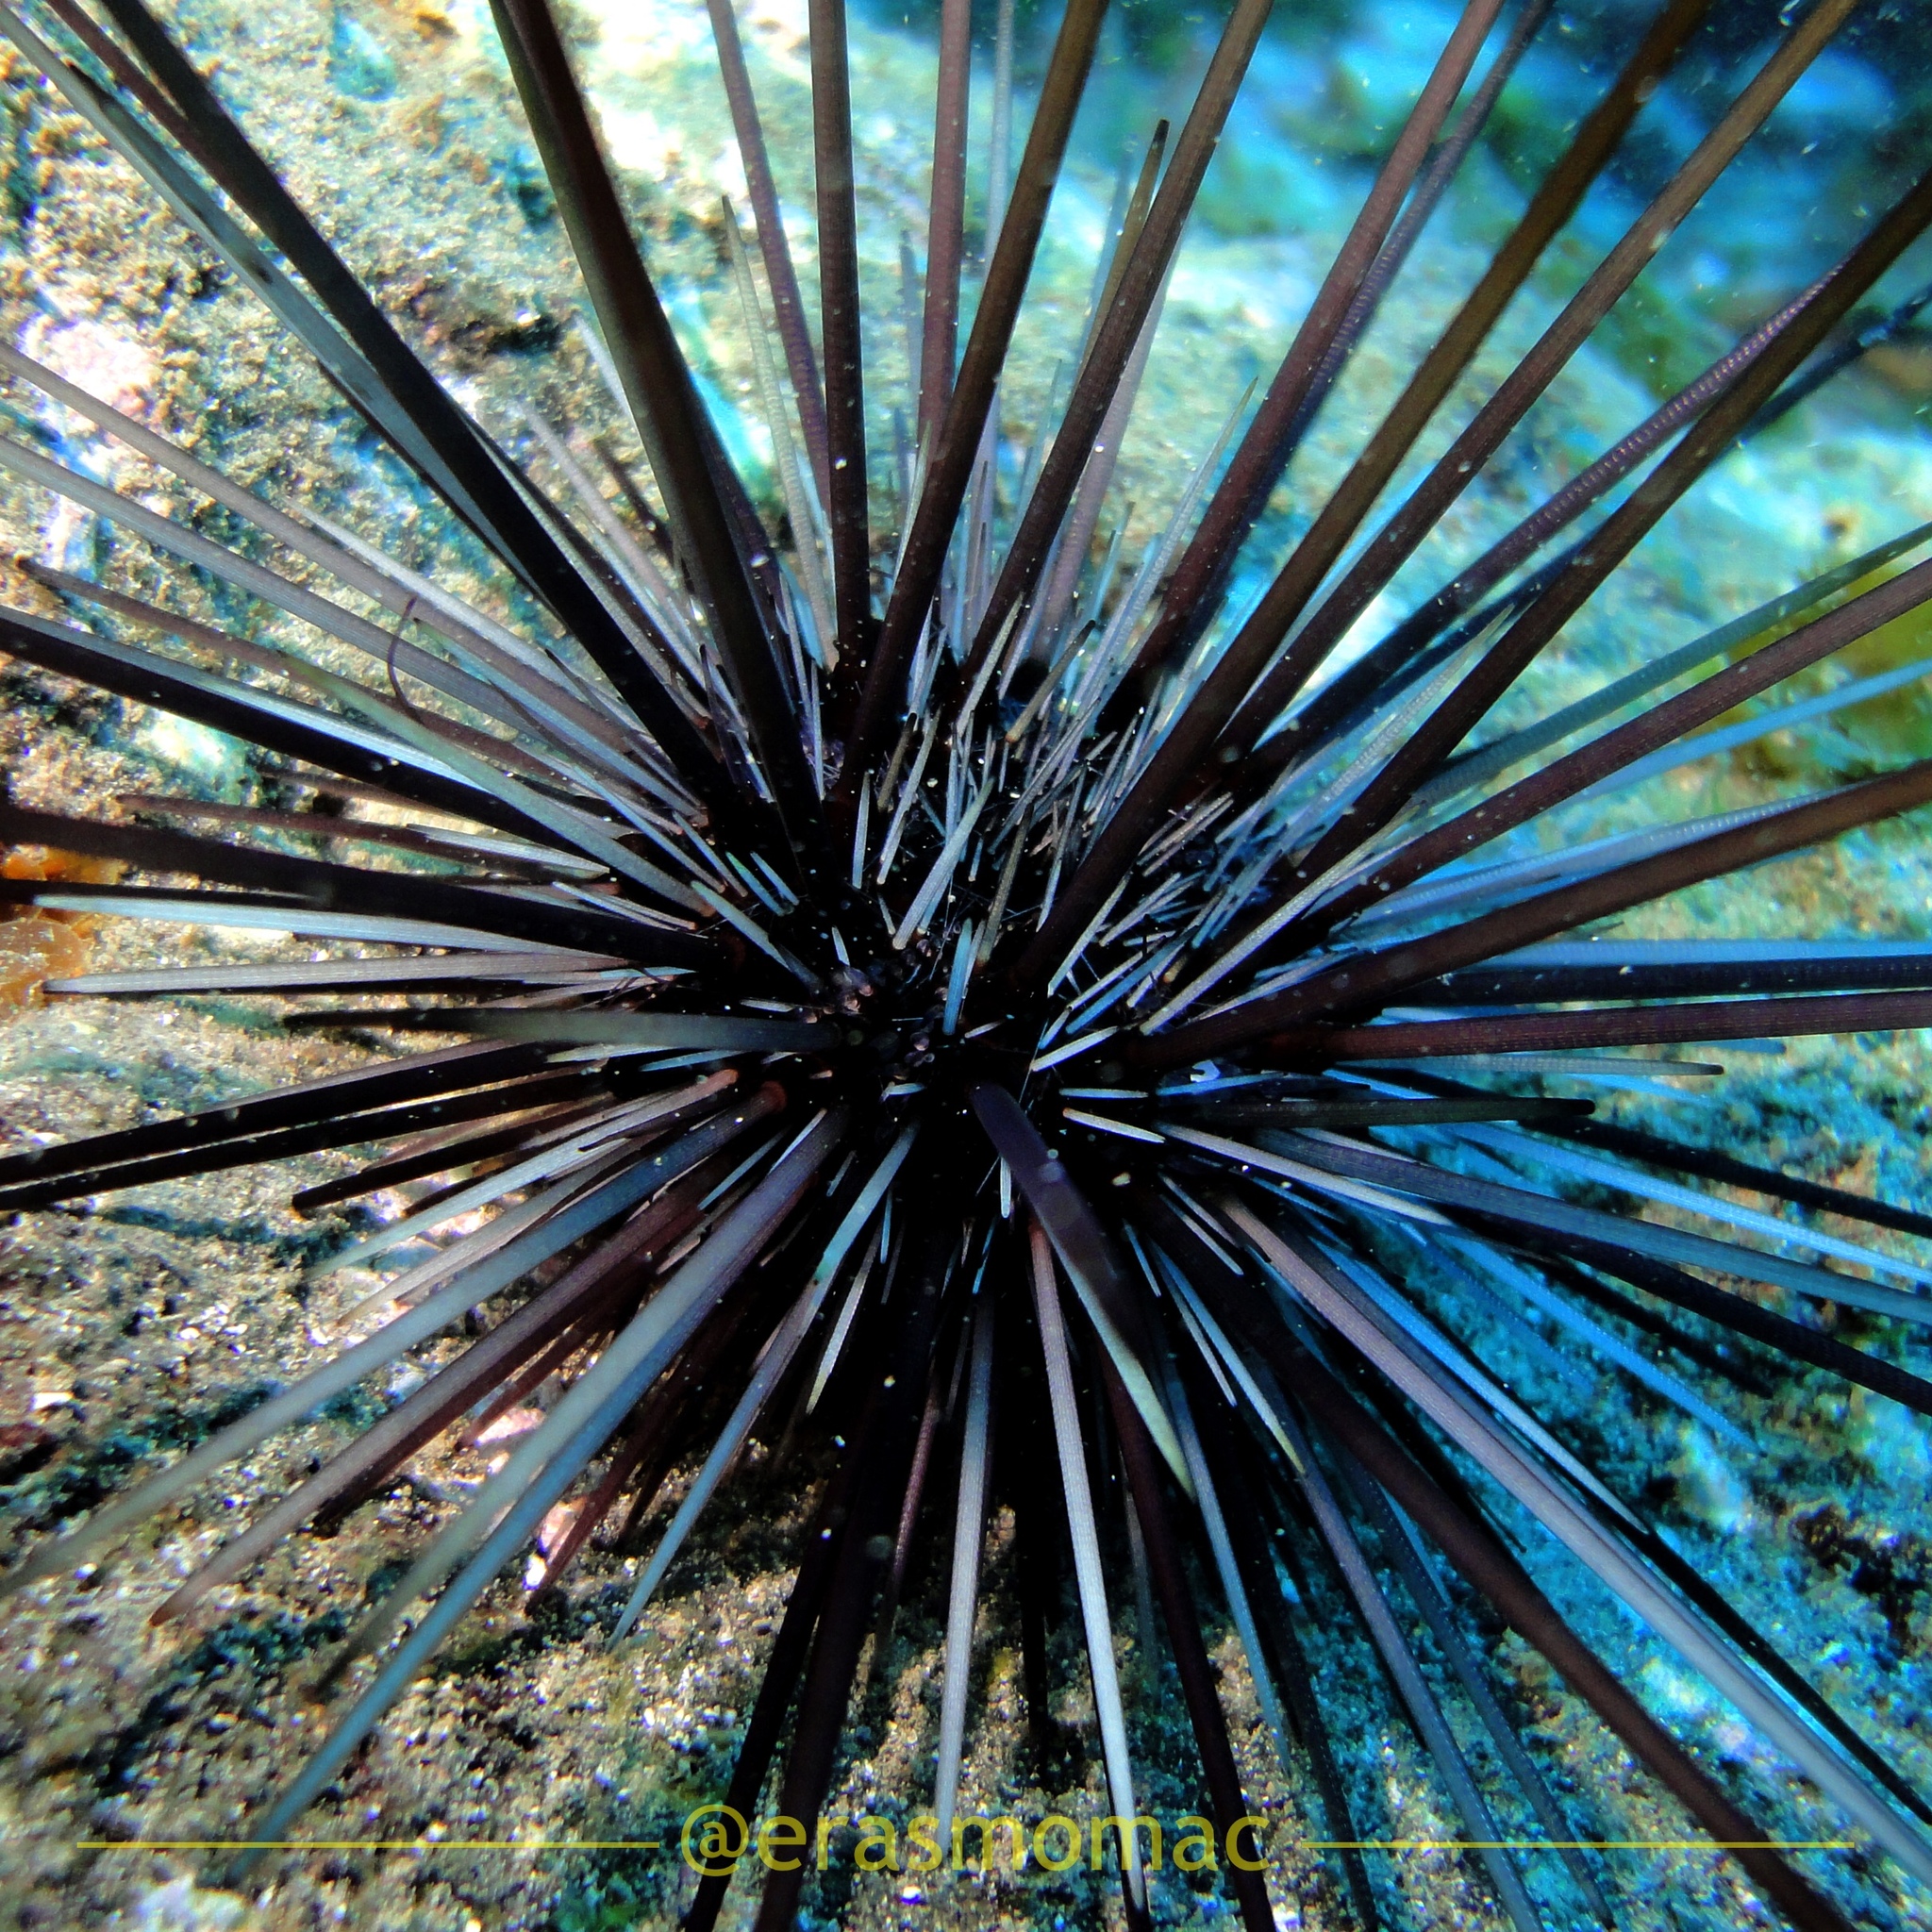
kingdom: Animalia
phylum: Echinodermata
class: Echinoidea
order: Diadematoida
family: Diadematidae
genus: Diadema
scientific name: Diadema savignyi
